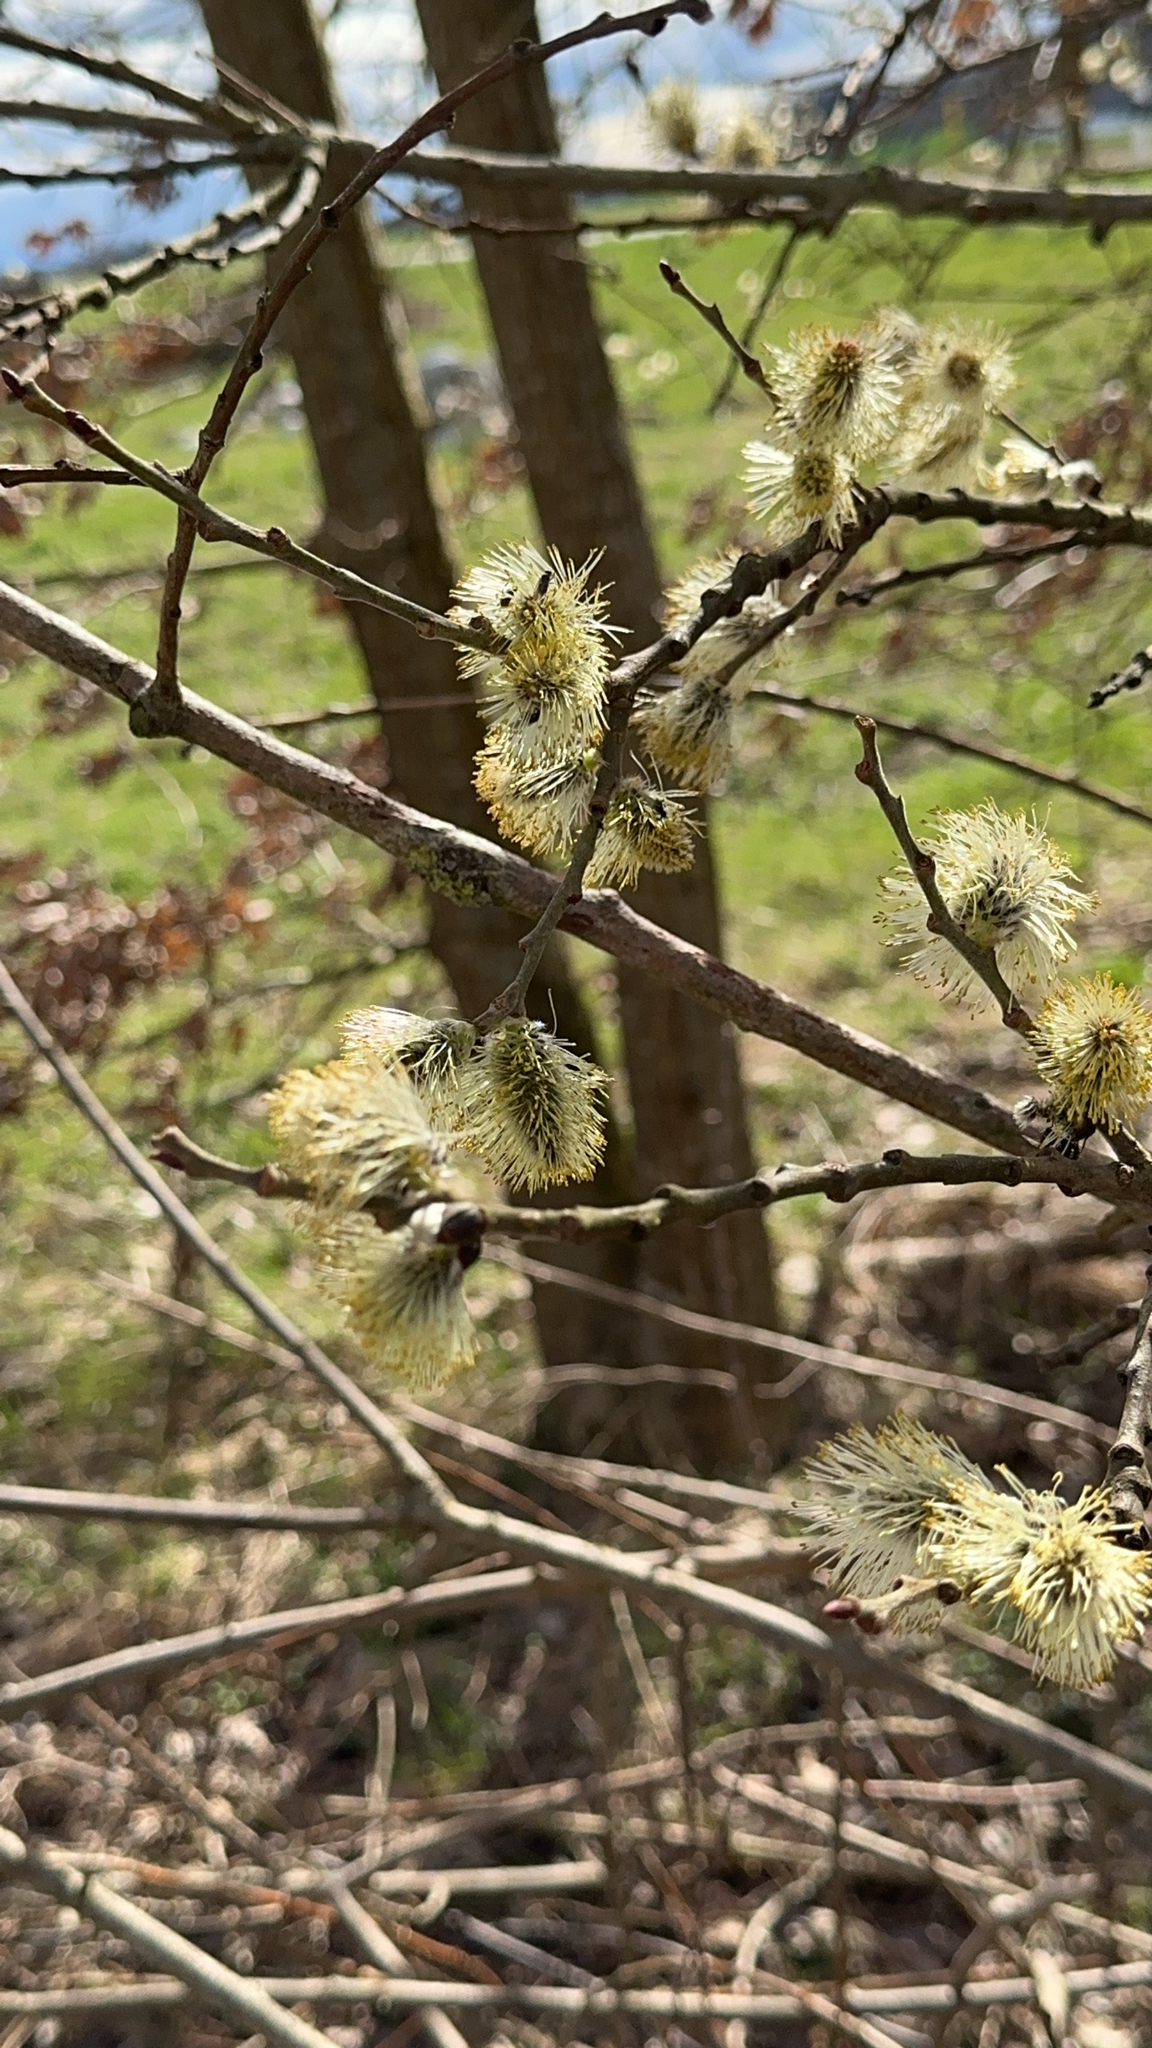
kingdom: Plantae
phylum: Tracheophyta
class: Magnoliopsida
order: Malpighiales
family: Salicaceae
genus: Salix
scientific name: Salix caprea
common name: Goat willow
